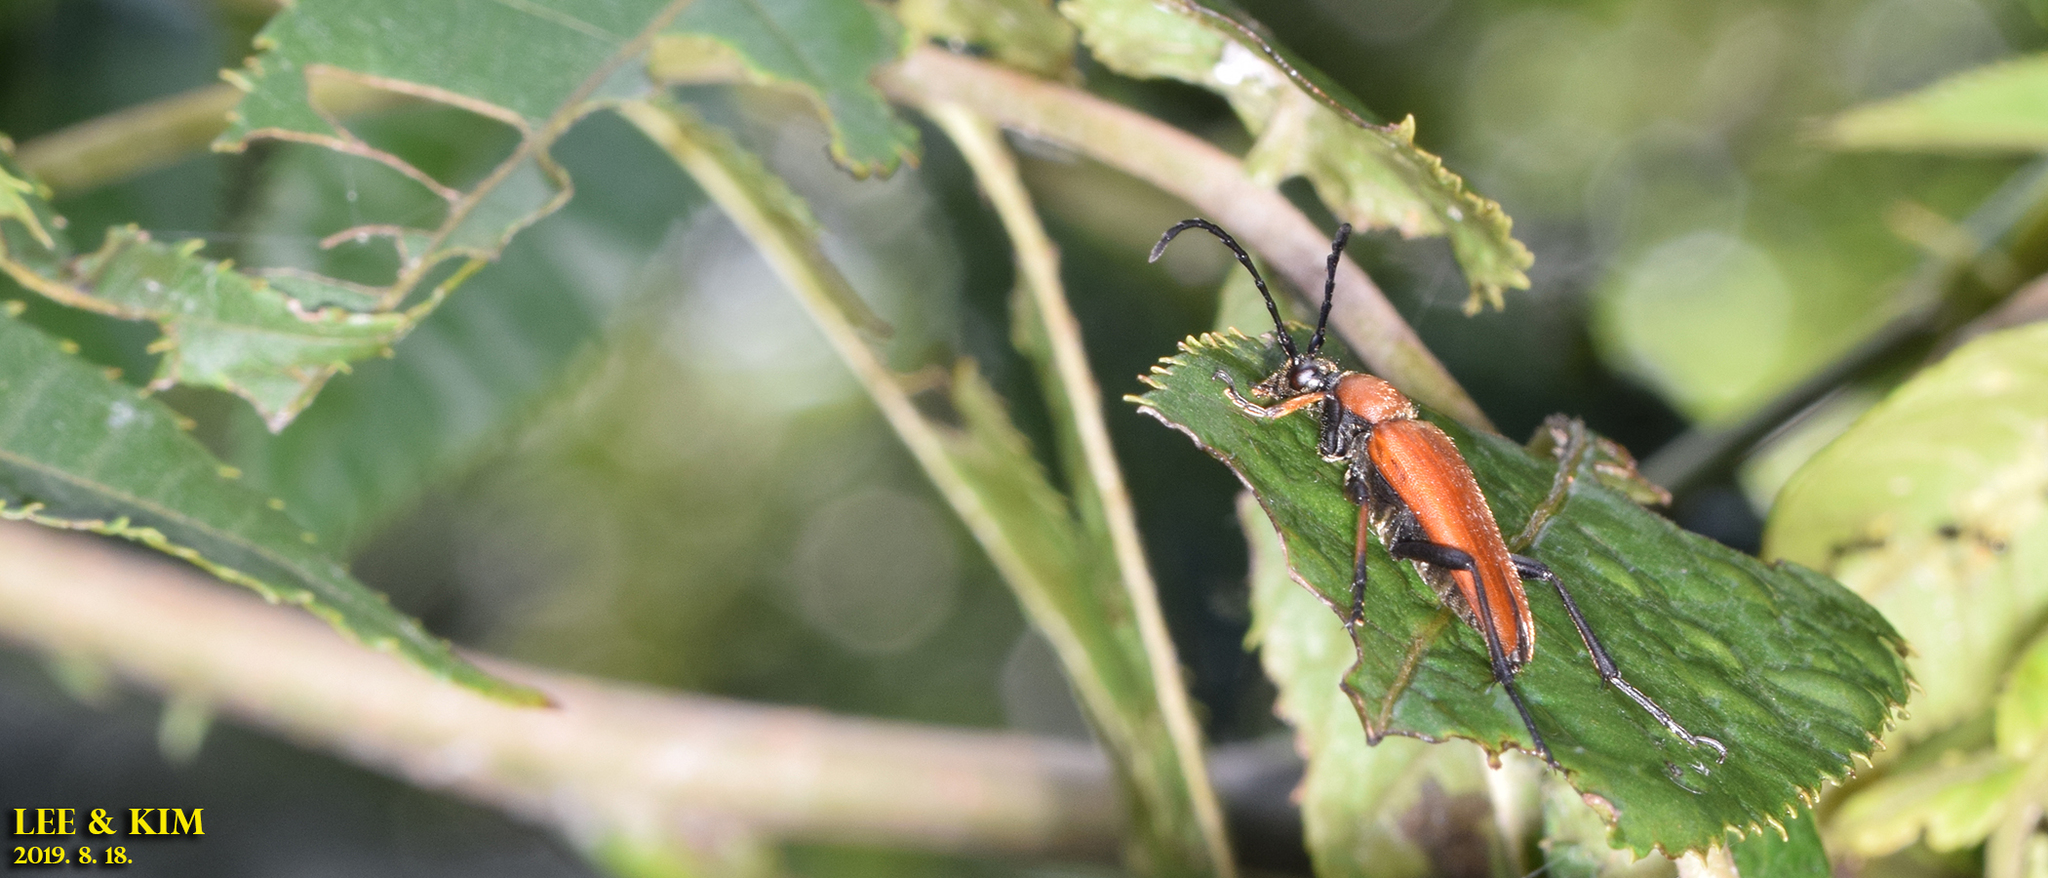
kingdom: Animalia
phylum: Arthropoda
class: Insecta
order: Coleoptera
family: Cerambycidae
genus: Stictoleptura
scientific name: Stictoleptura dichroa
